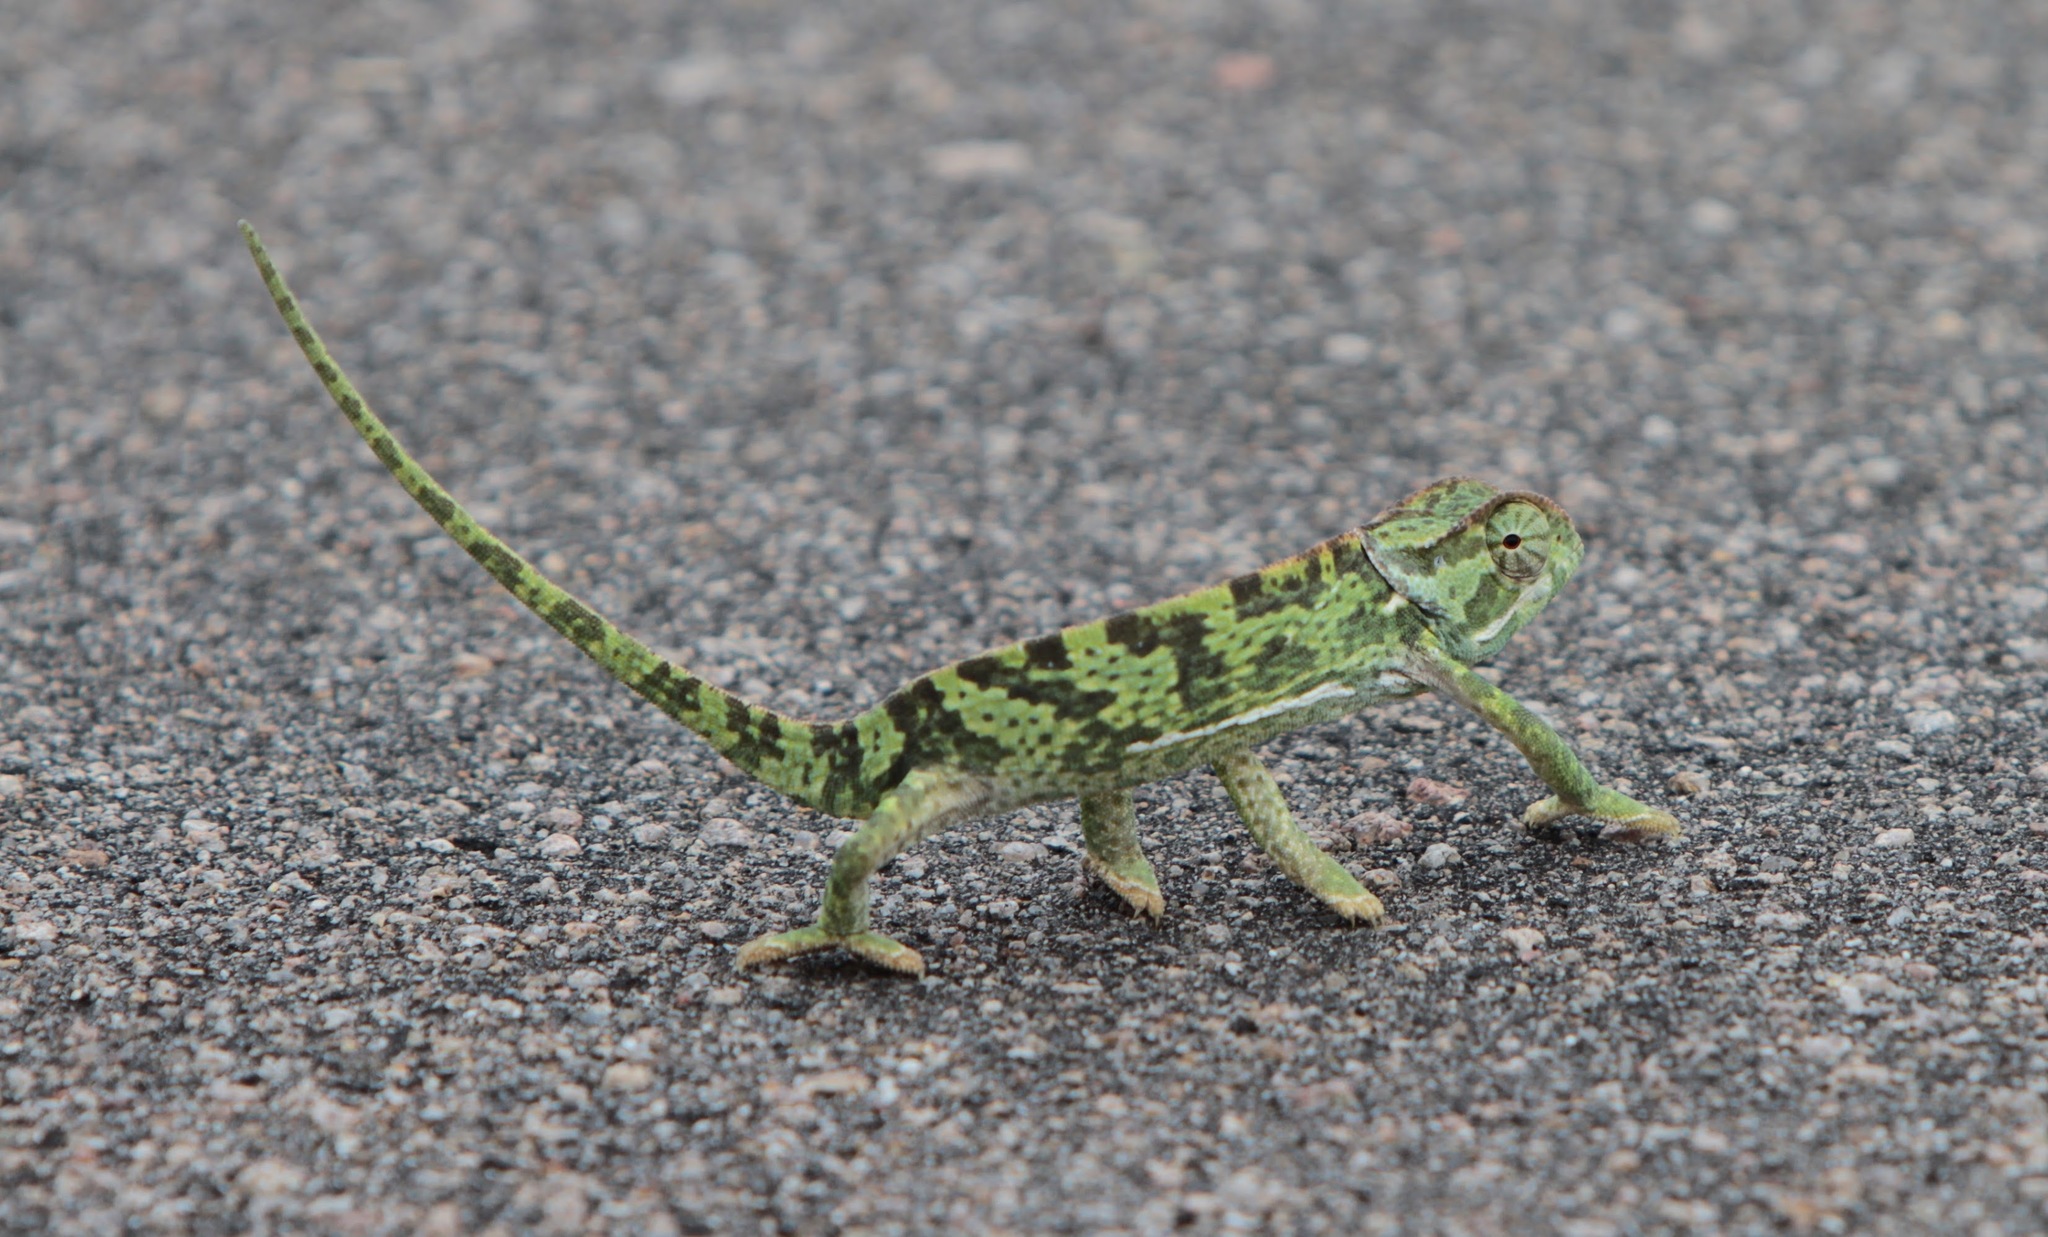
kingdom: Animalia
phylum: Chordata
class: Squamata
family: Chamaeleonidae
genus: Chamaeleo
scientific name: Chamaeleo dilepis
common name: Flapneck chameleon
